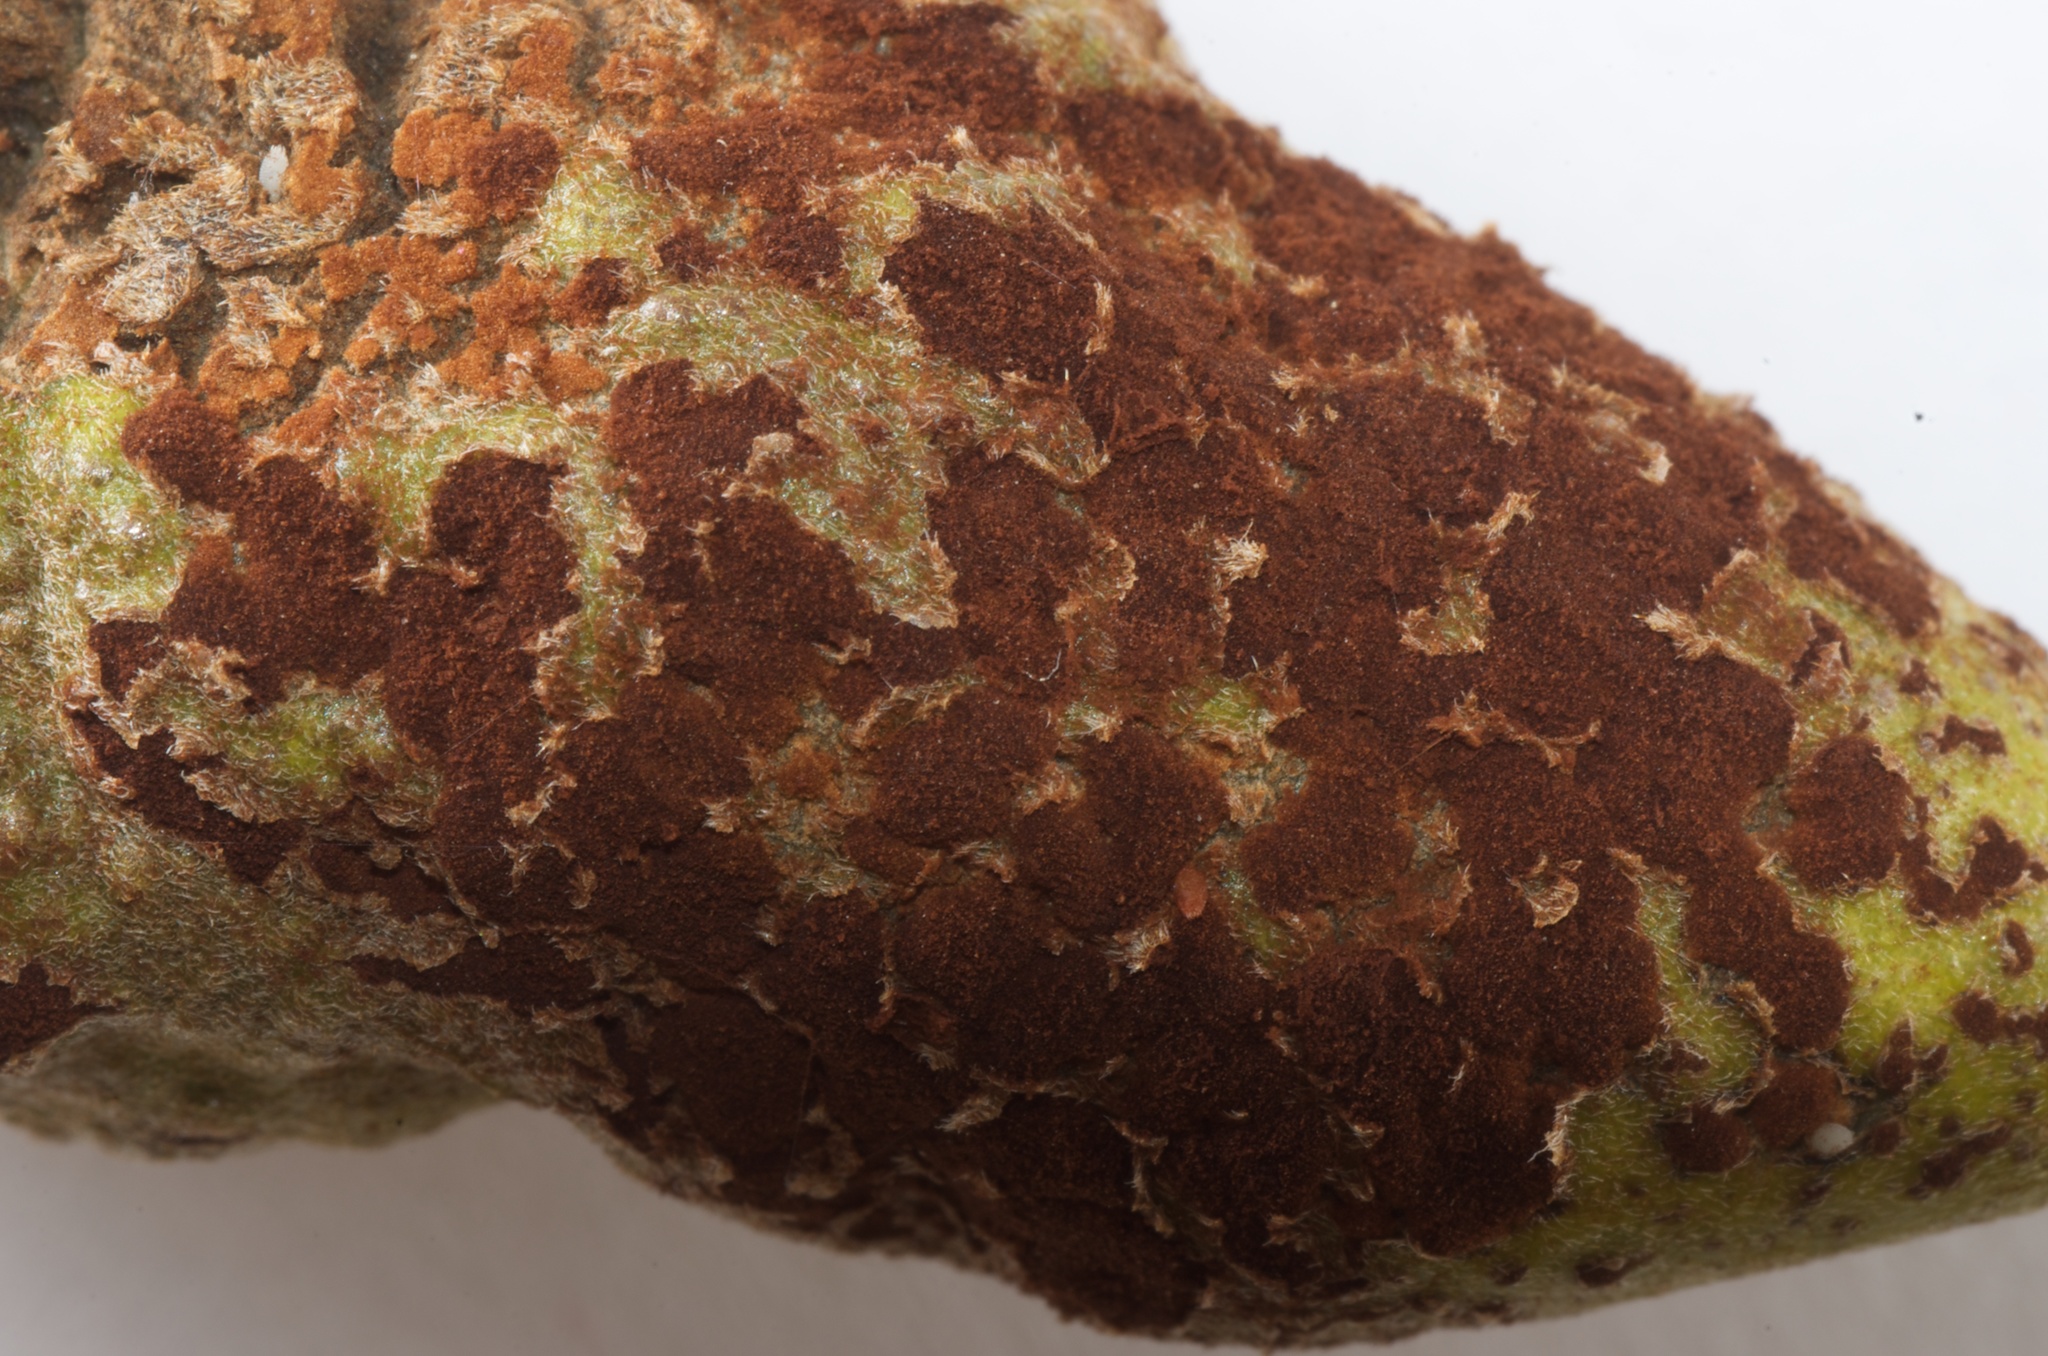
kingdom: Fungi
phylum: Basidiomycota
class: Pucciniomycetes
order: Pucciniales
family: Pucciniaceae
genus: Uromyces
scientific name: Uromyces edwardsiae
